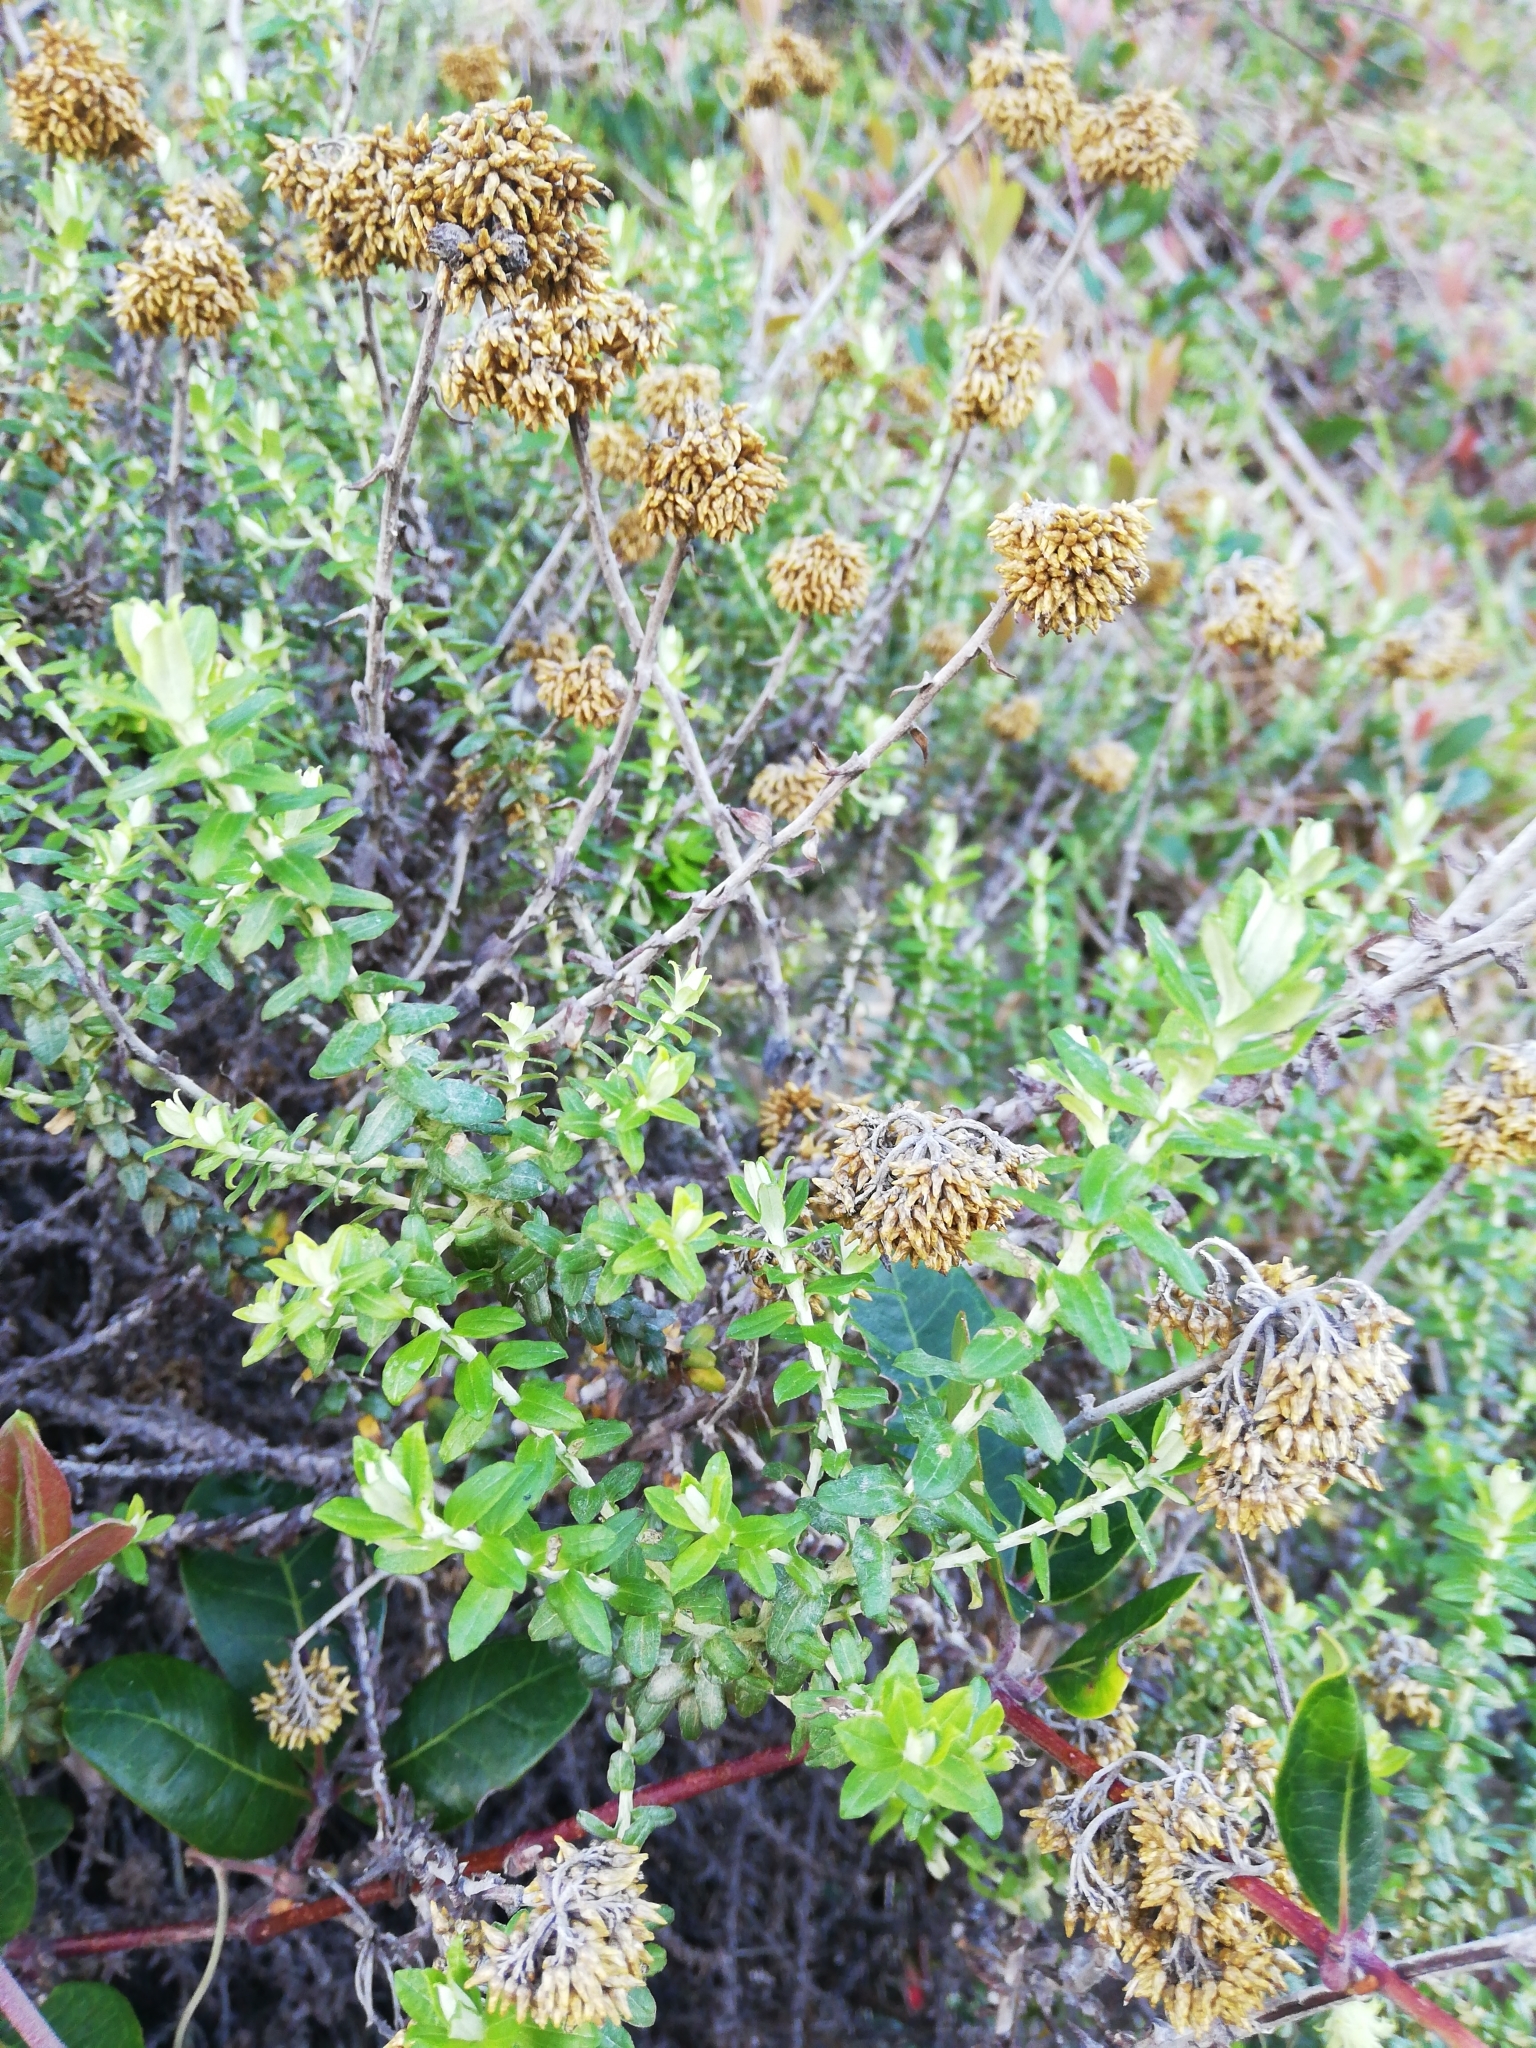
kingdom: Plantae
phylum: Tracheophyta
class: Magnoliopsida
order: Asterales
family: Asteraceae
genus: Helichrysum
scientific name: Helichrysum cymosum
